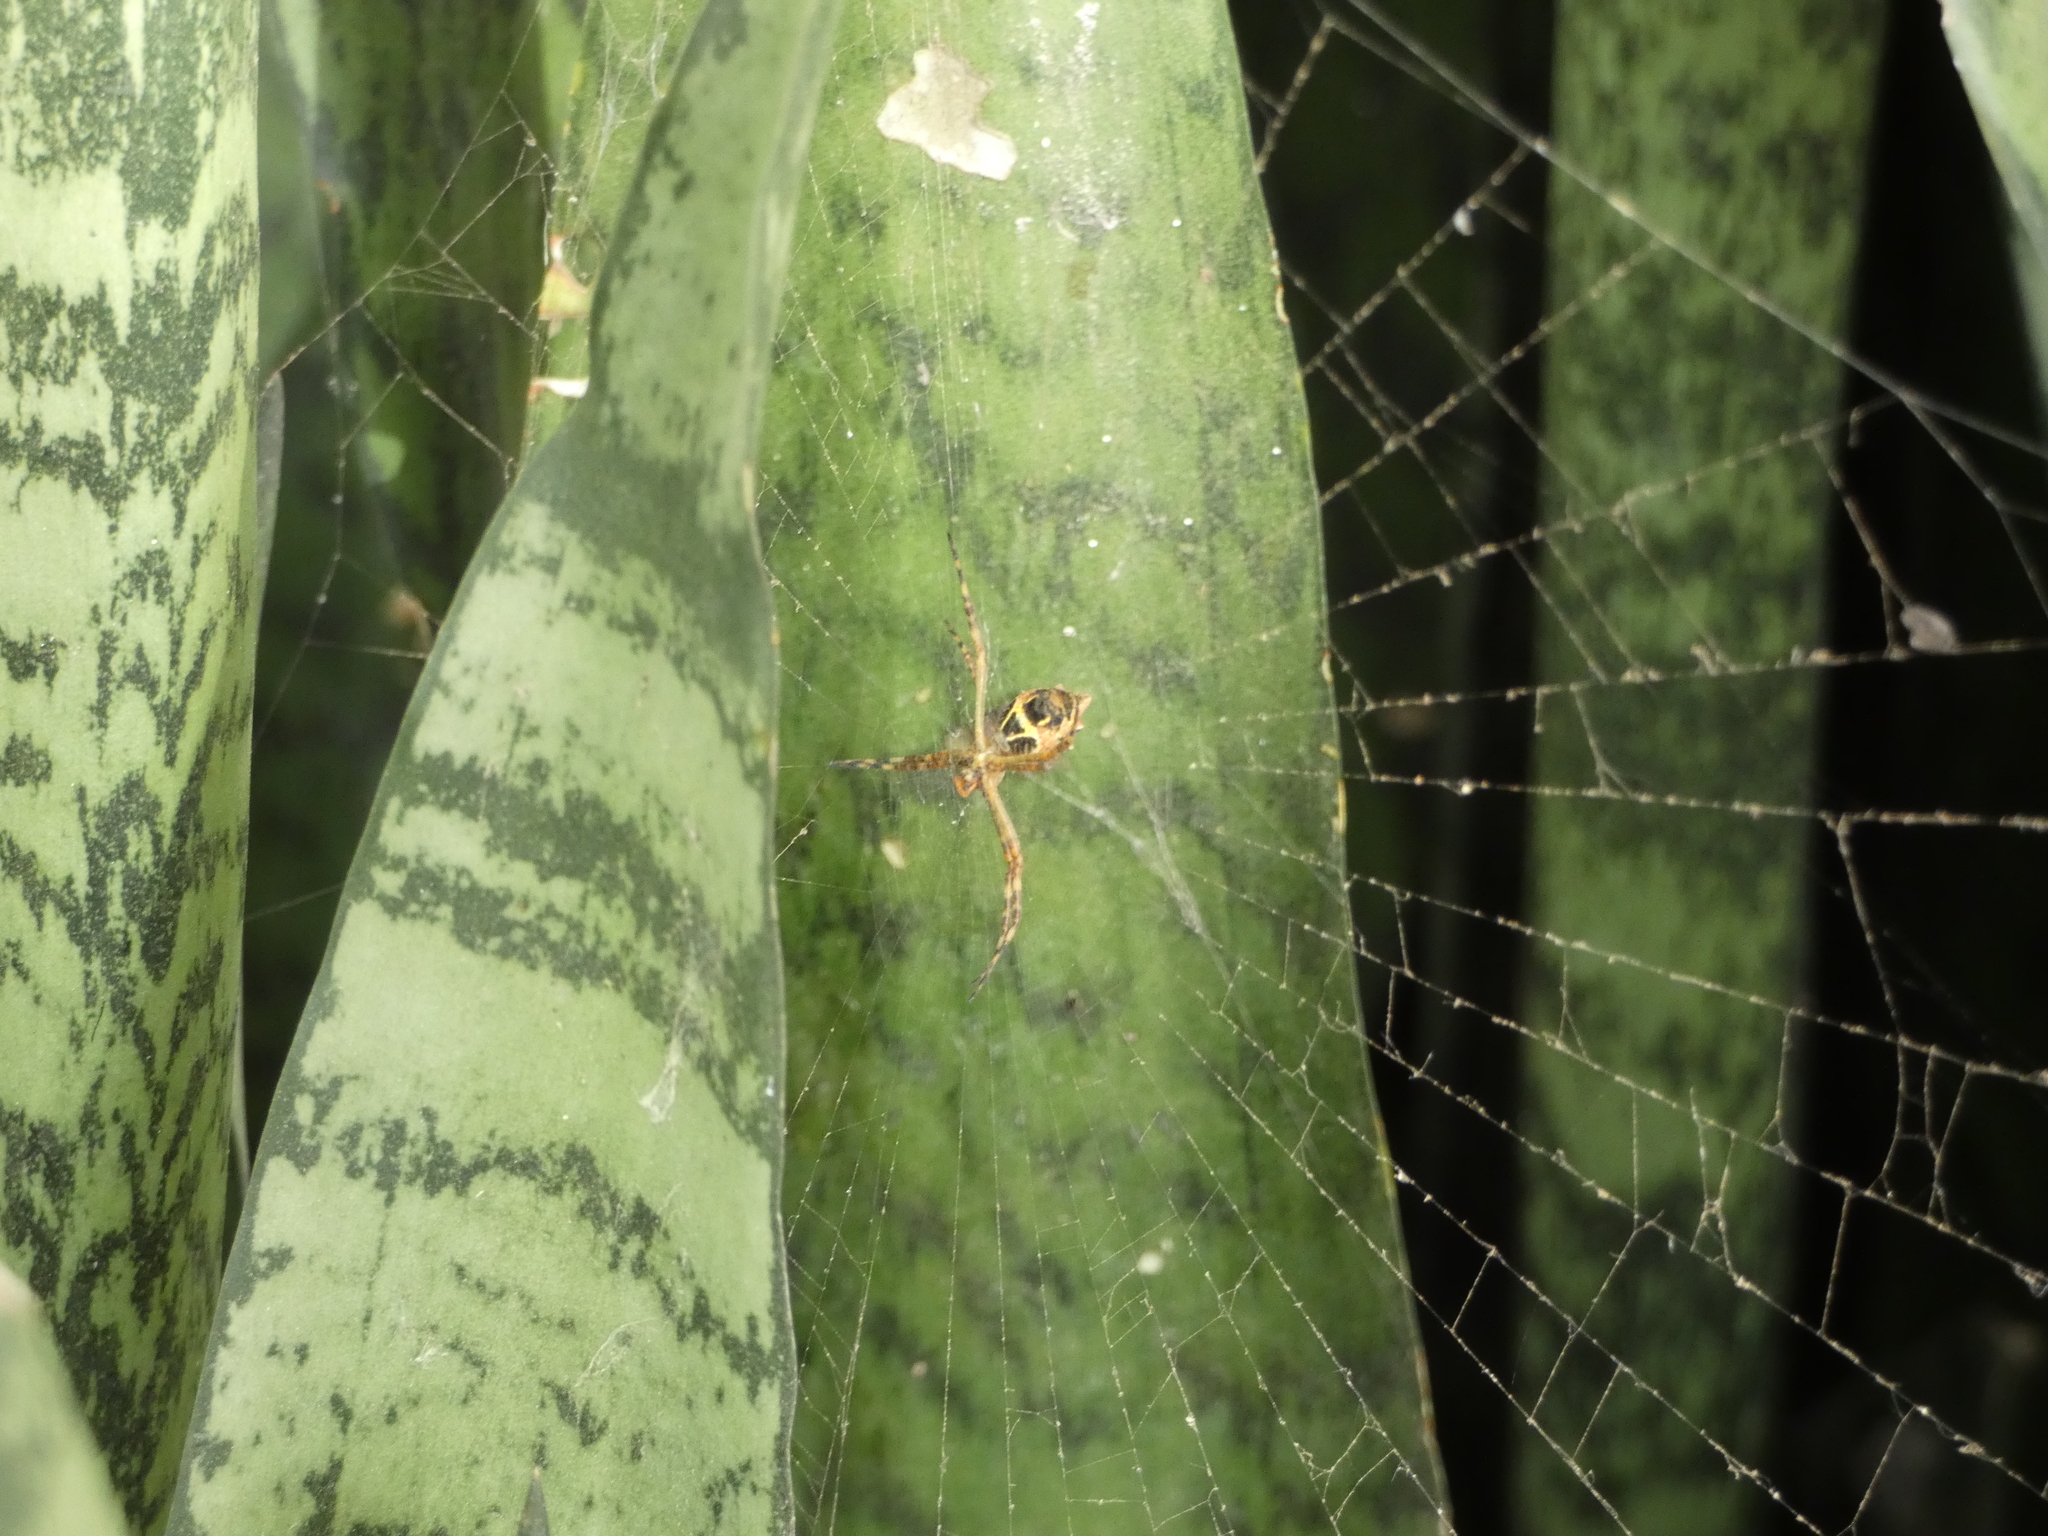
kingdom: Animalia
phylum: Arthropoda
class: Arachnida
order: Araneae
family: Araneidae
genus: Argiope
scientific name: Argiope argentata
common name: Orb weavers
